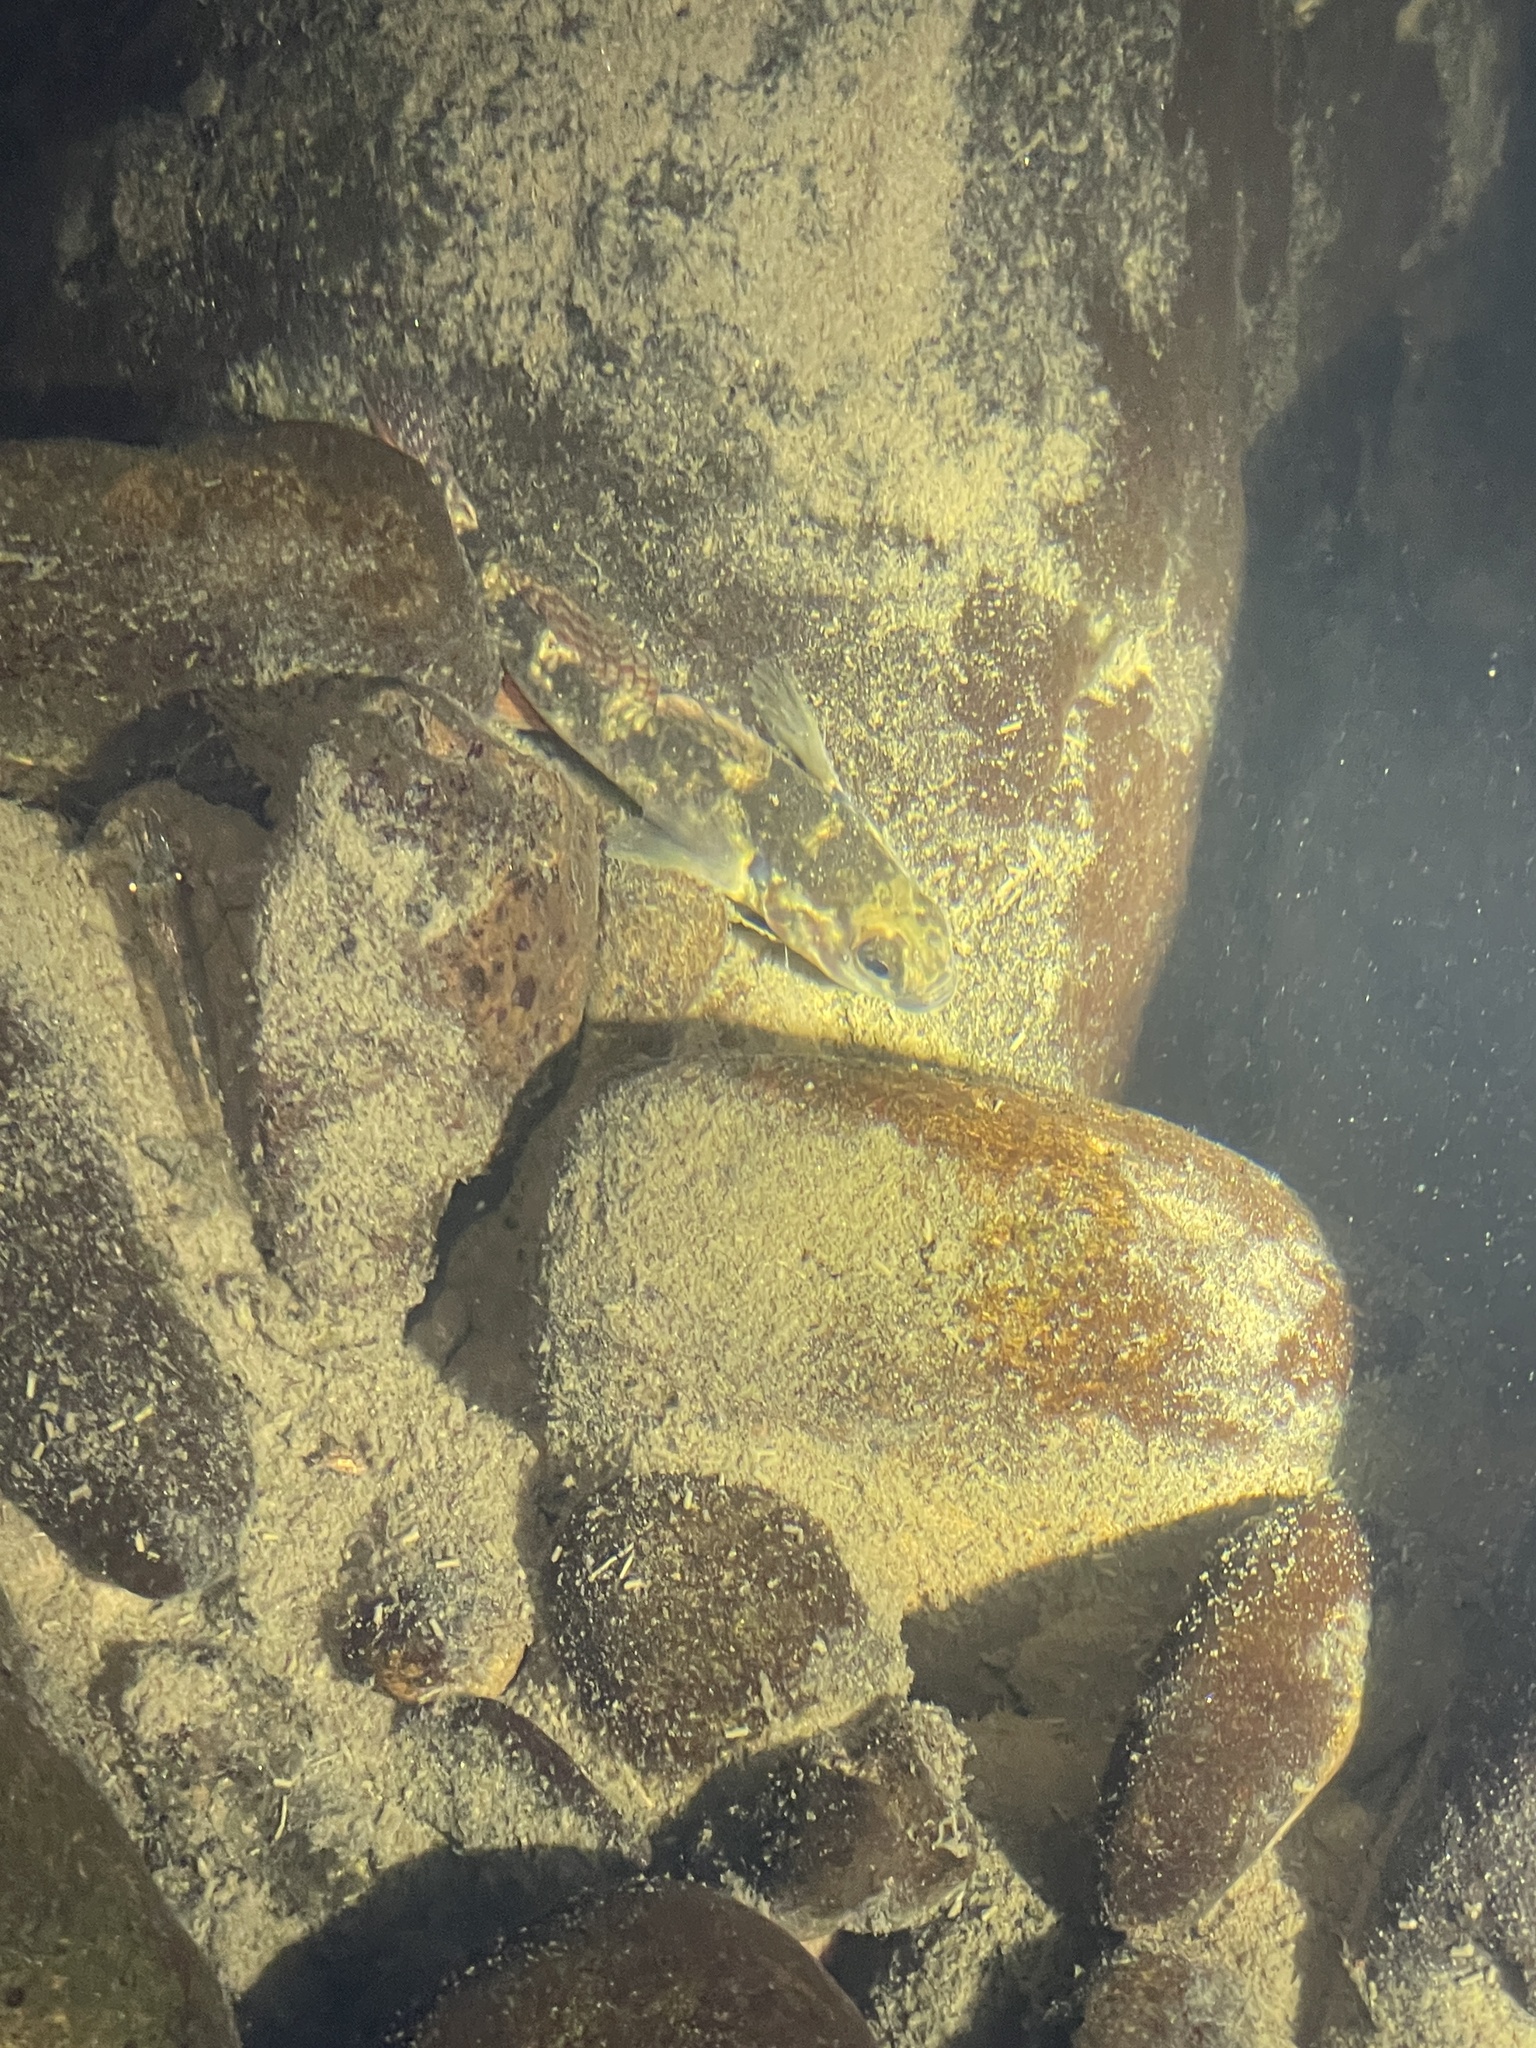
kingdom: Animalia
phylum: Chordata
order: Perciformes
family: Eleotridae
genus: Gobiomorphus
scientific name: Gobiomorphus huttoni
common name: Redfin bully
